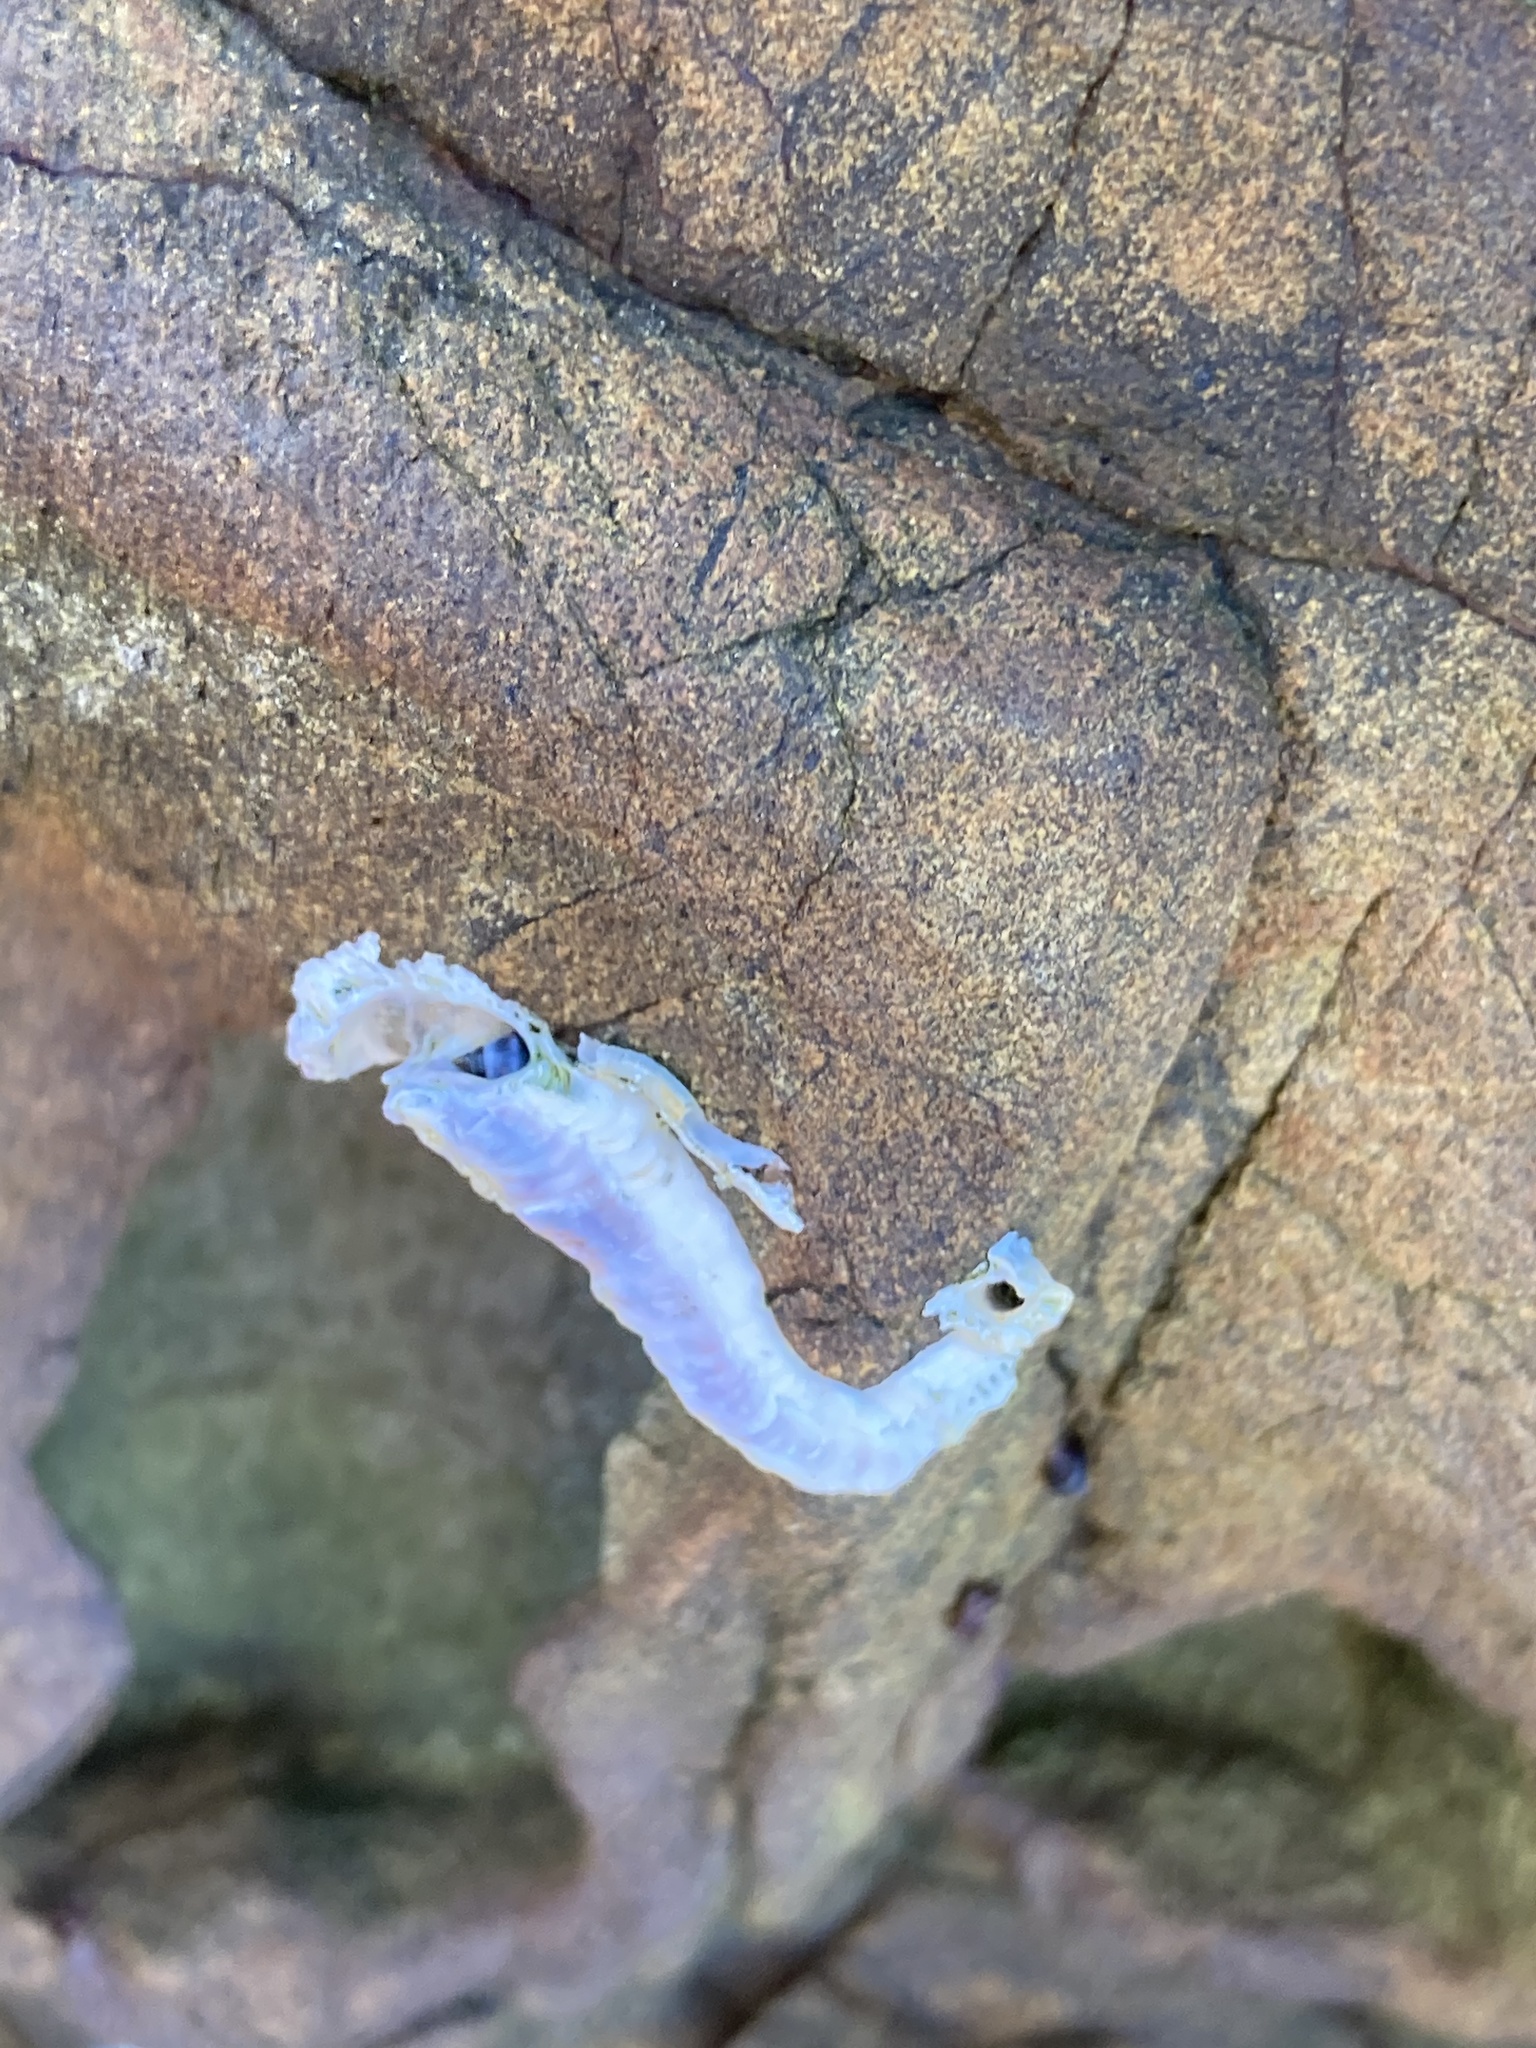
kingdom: Animalia
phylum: Annelida
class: Polychaeta
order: Sabellida
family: Serpulidae
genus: Spirobranchus
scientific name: Spirobranchus cariniferus
